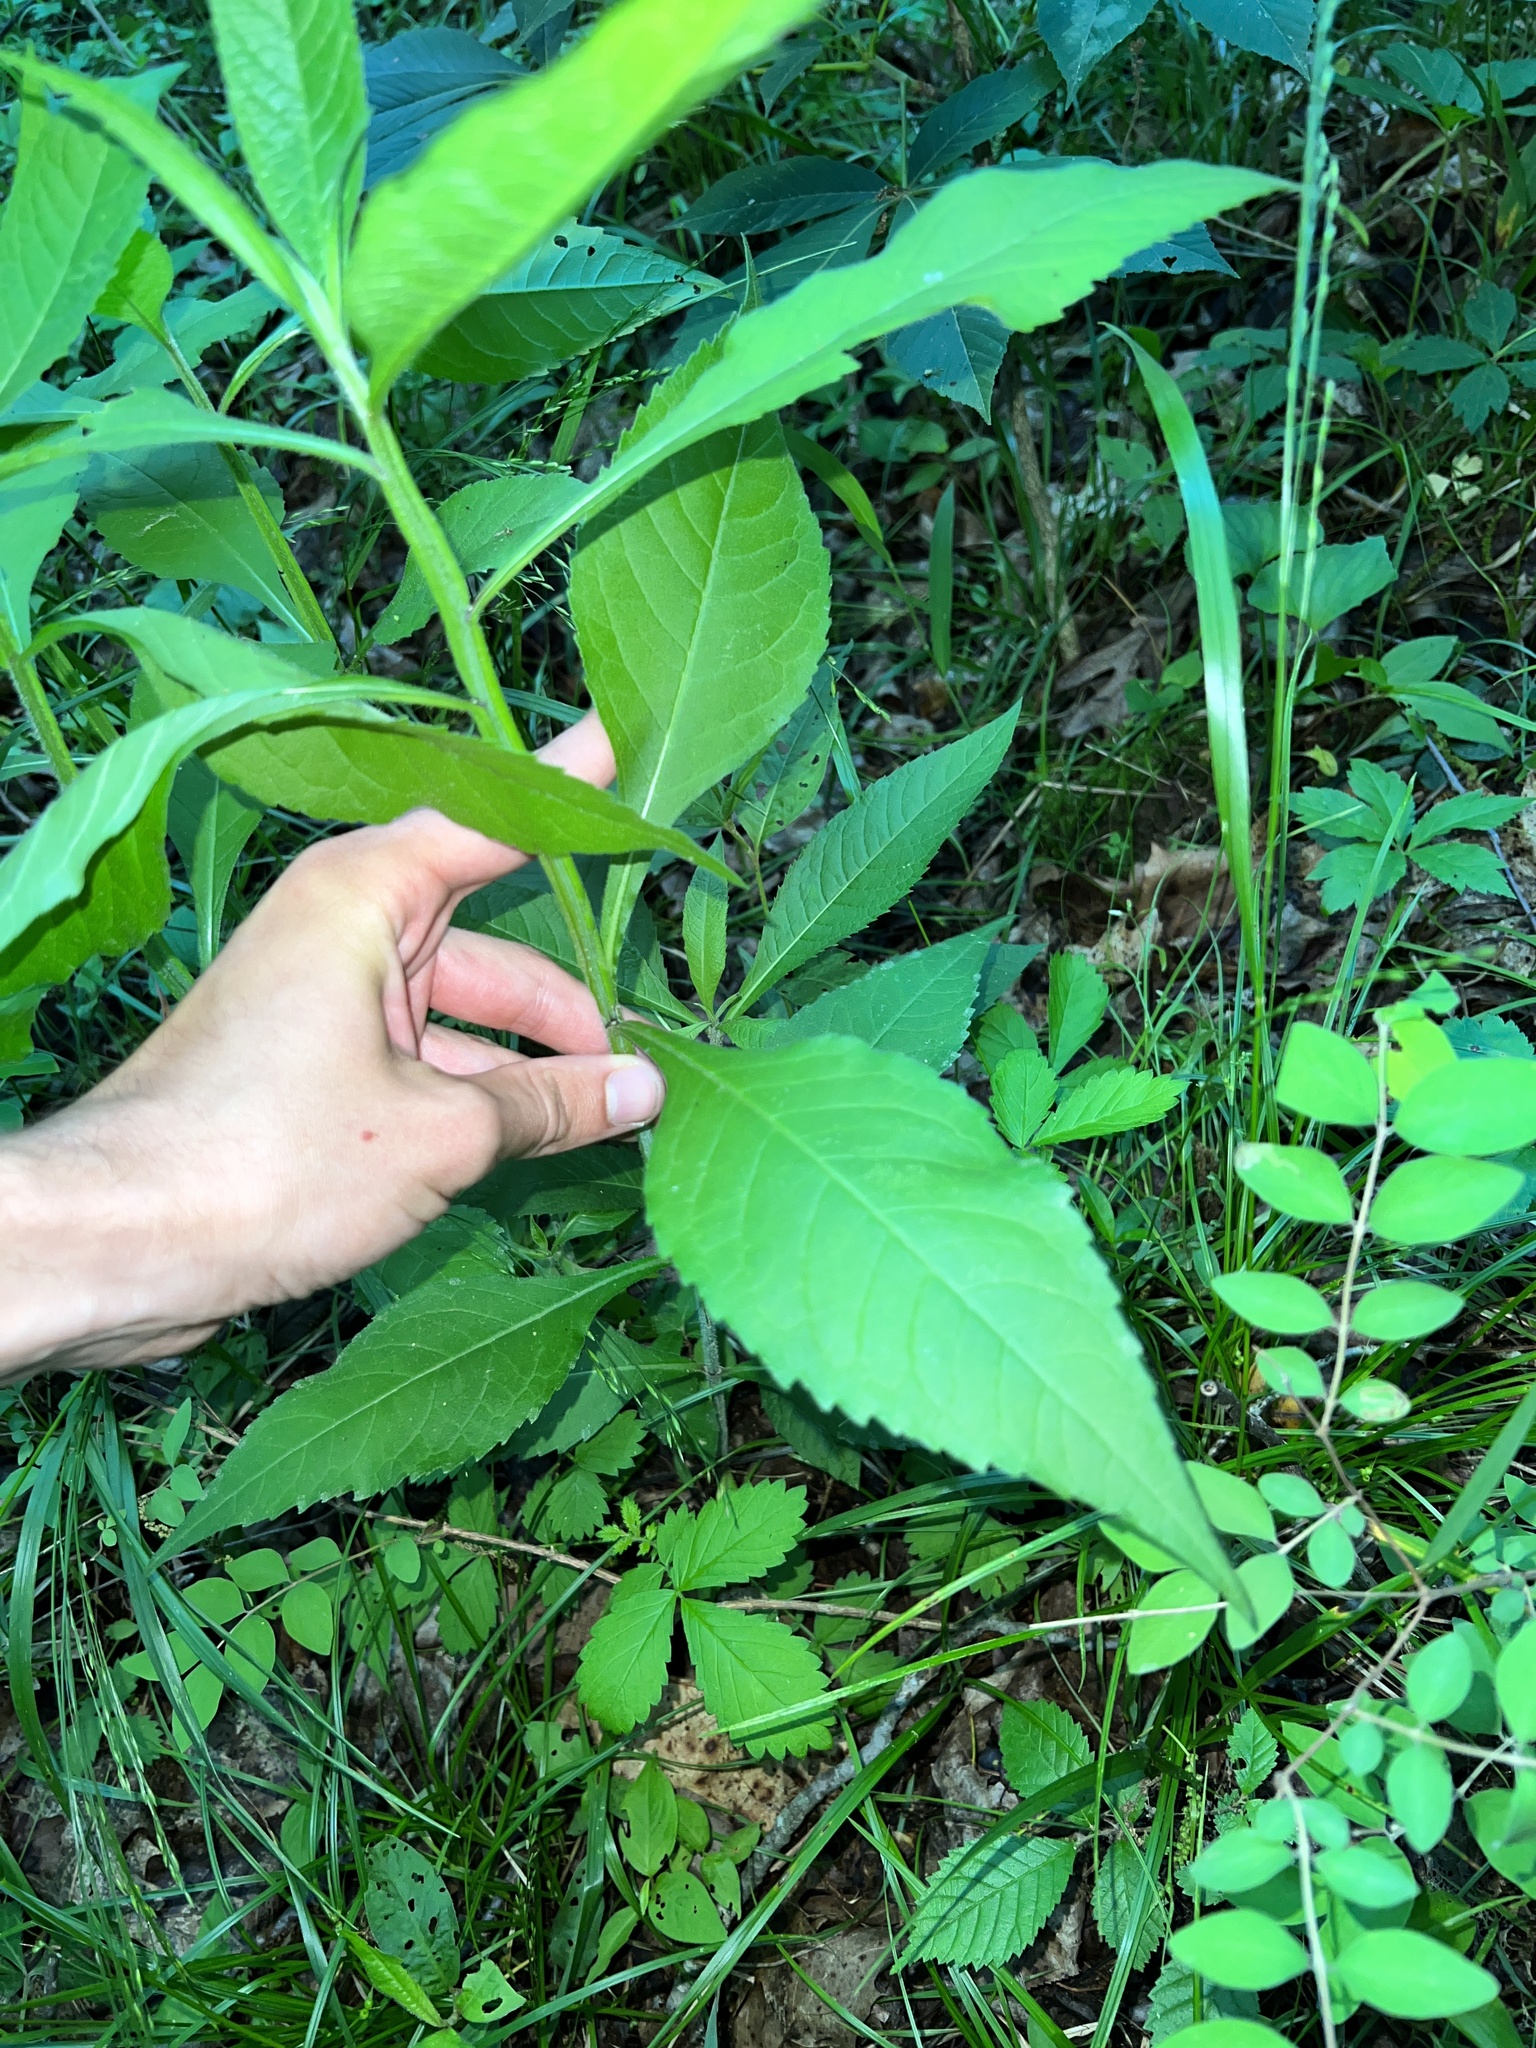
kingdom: Plantae
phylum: Tracheophyta
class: Magnoliopsida
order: Asterales
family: Asteraceae
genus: Verbesina
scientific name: Verbesina alternifolia
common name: Wingstem
